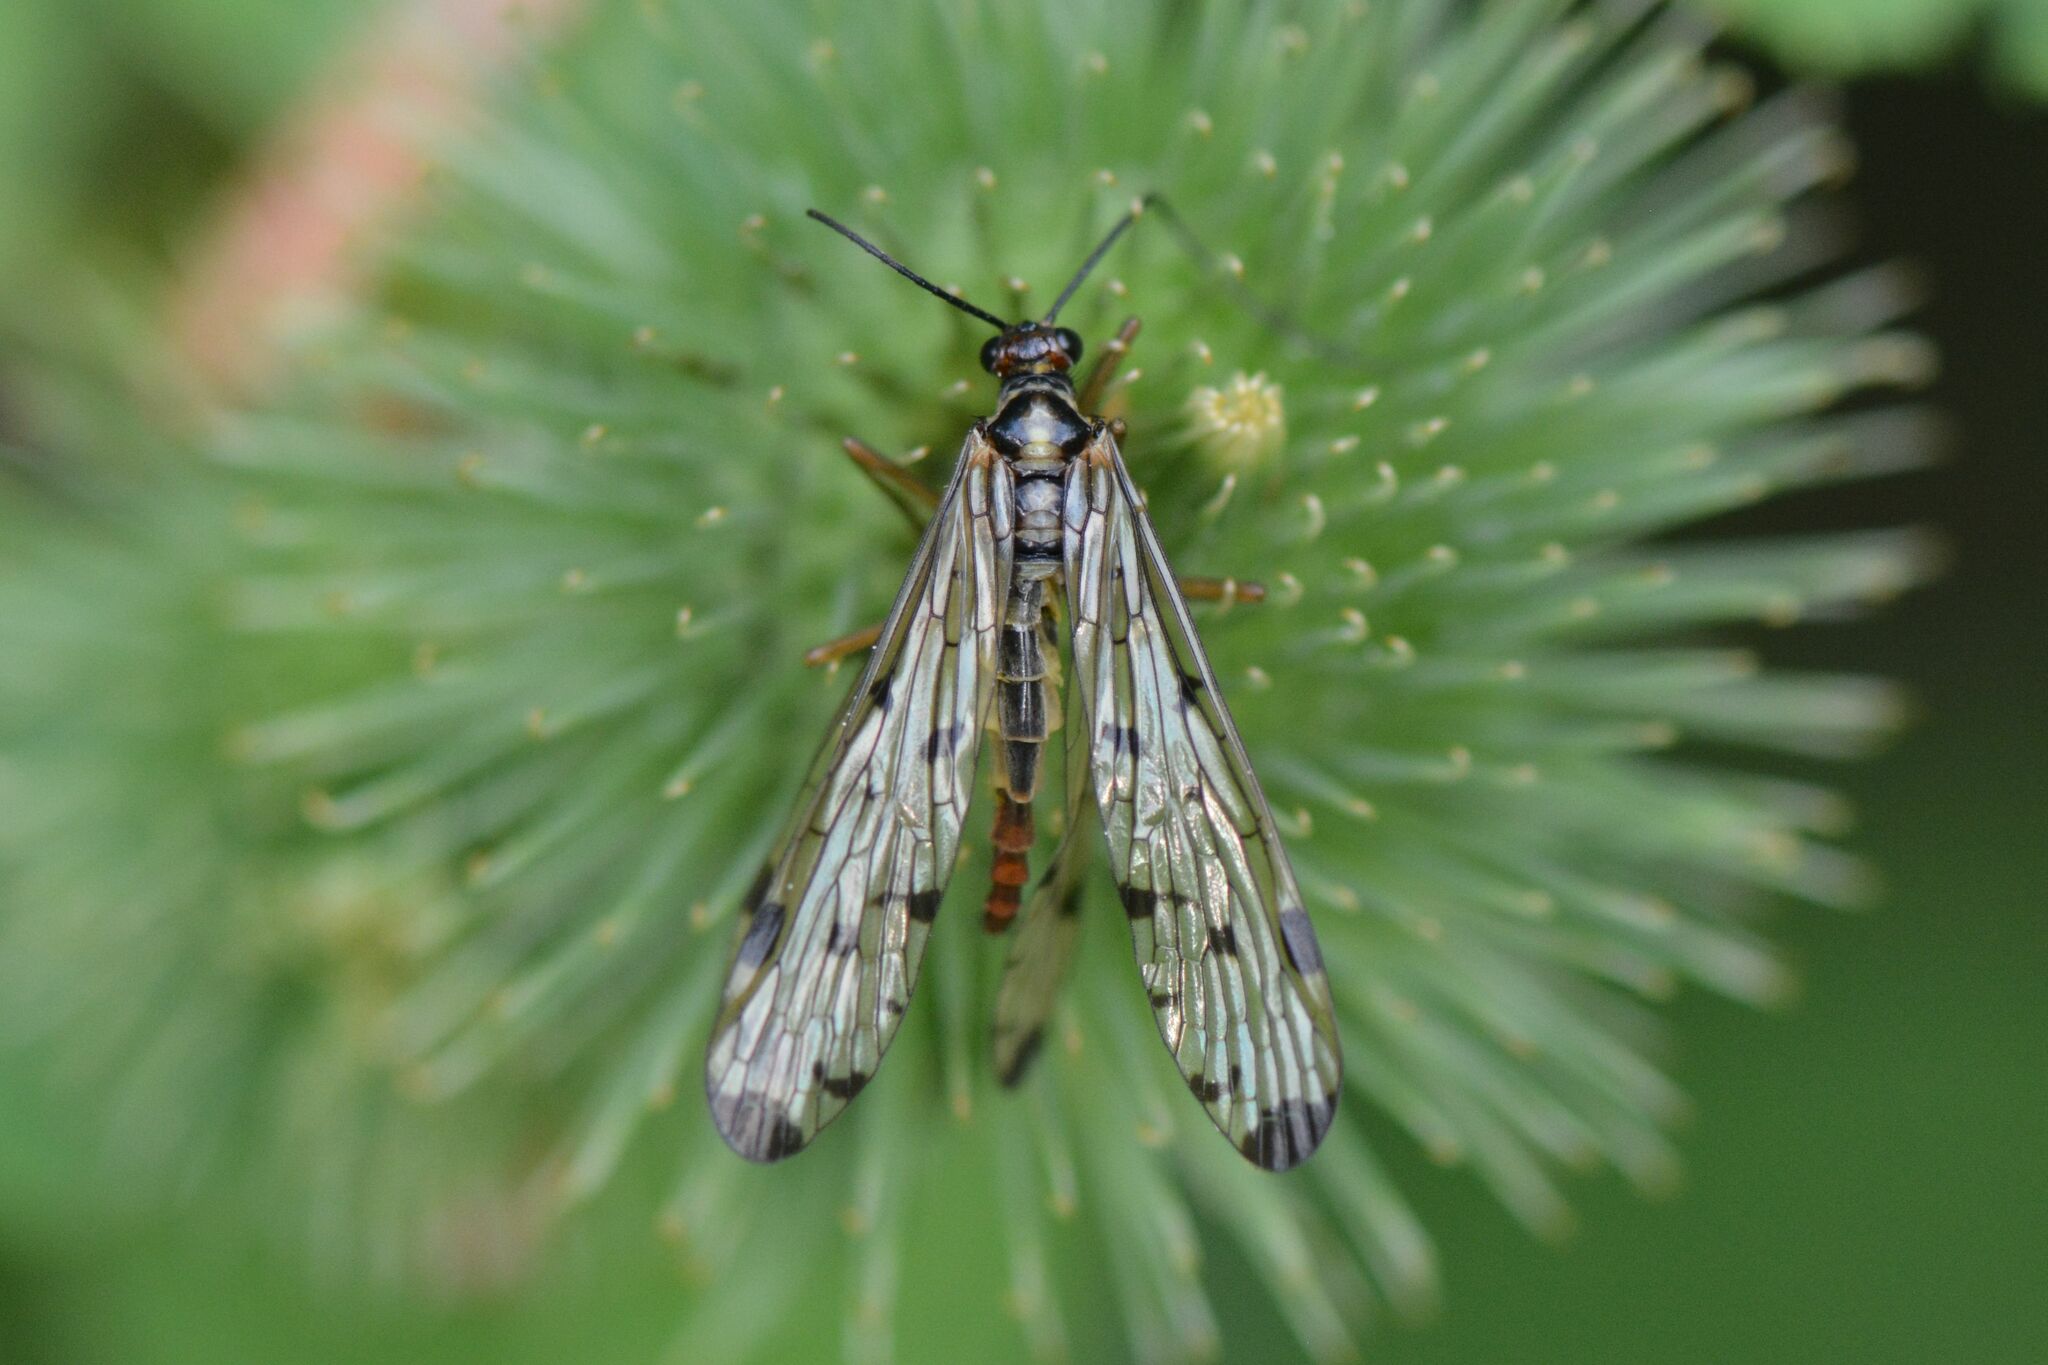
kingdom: Animalia
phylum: Arthropoda
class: Insecta
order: Mecoptera
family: Panorpidae
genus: Panorpa
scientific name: Panorpa germanica
